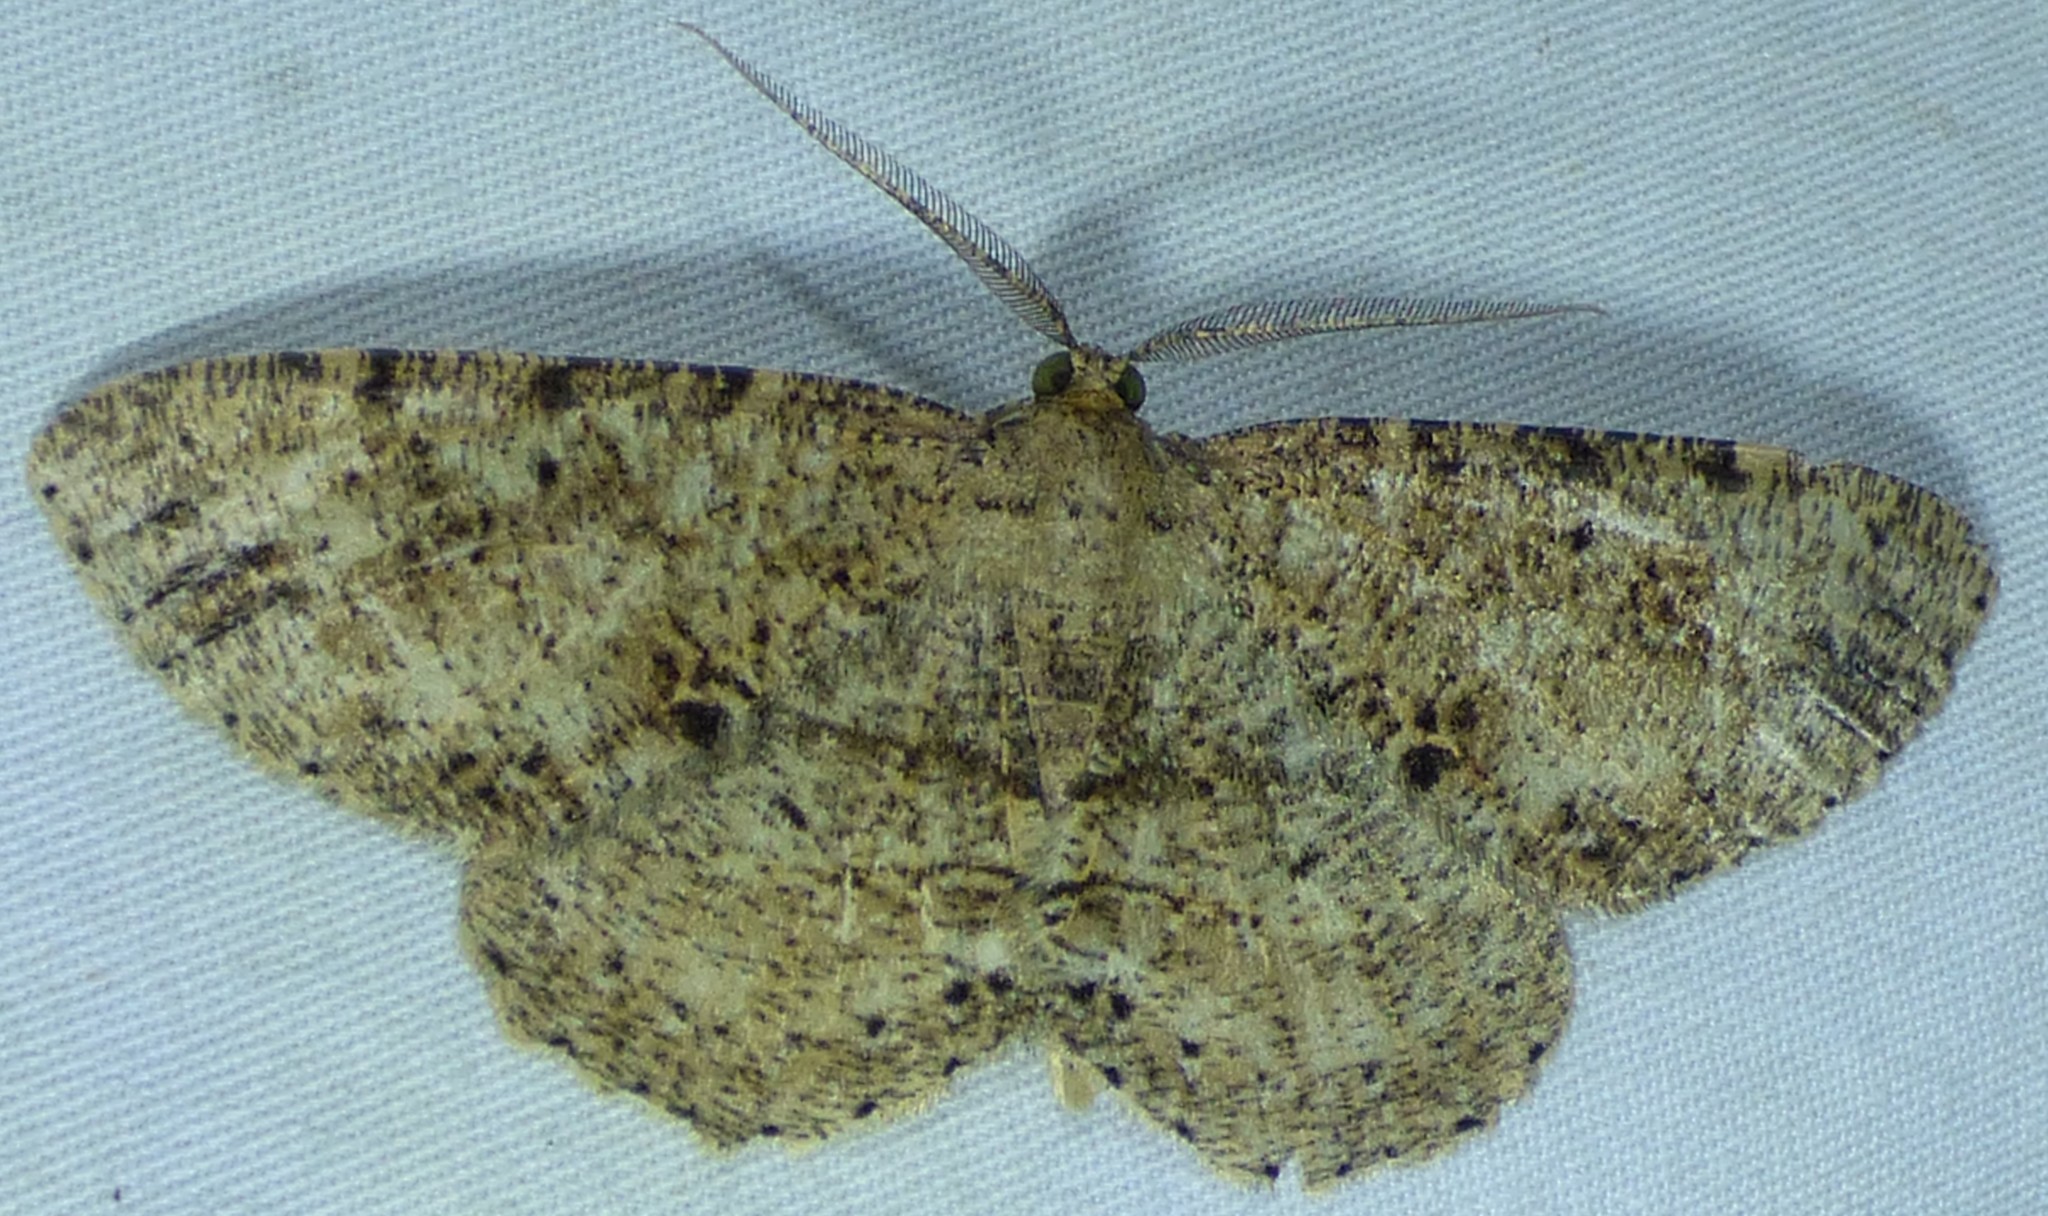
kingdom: Animalia
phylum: Arthropoda
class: Insecta
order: Lepidoptera
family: Geometridae
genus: Melanolophia
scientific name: Melanolophia canadaria
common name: Canadian melanolophia
